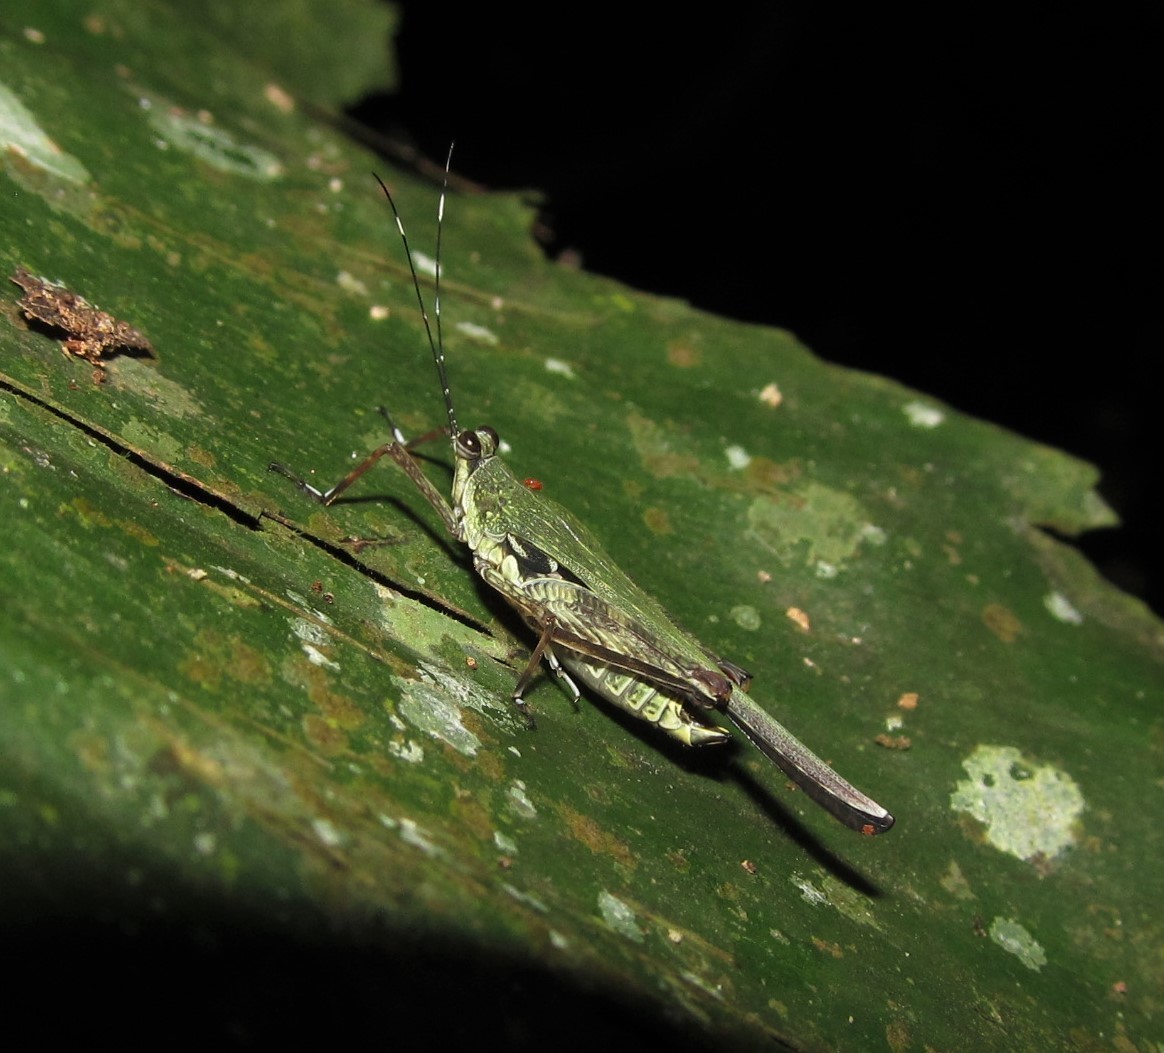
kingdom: Animalia
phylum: Arthropoda
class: Insecta
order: Orthoptera
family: Tetrigidae
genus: Pseudoxistrella
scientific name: Pseudoxistrella belokobylskii
